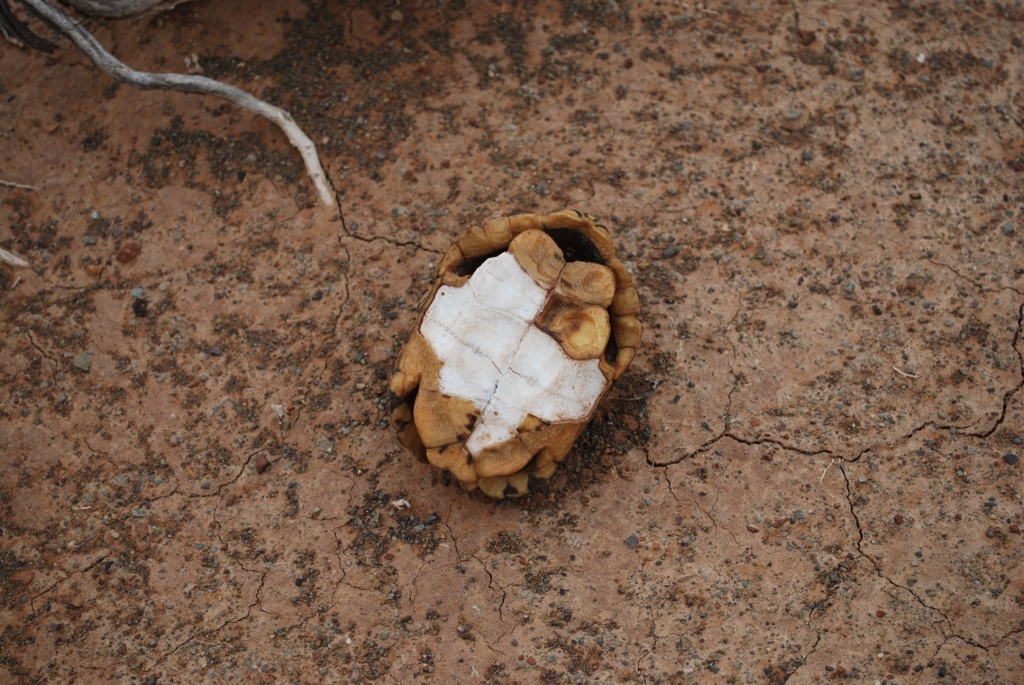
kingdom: Animalia
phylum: Chordata
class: Testudines
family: Testudinidae
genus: Psammobates
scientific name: Psammobates tentorius
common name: Tent tortoise
